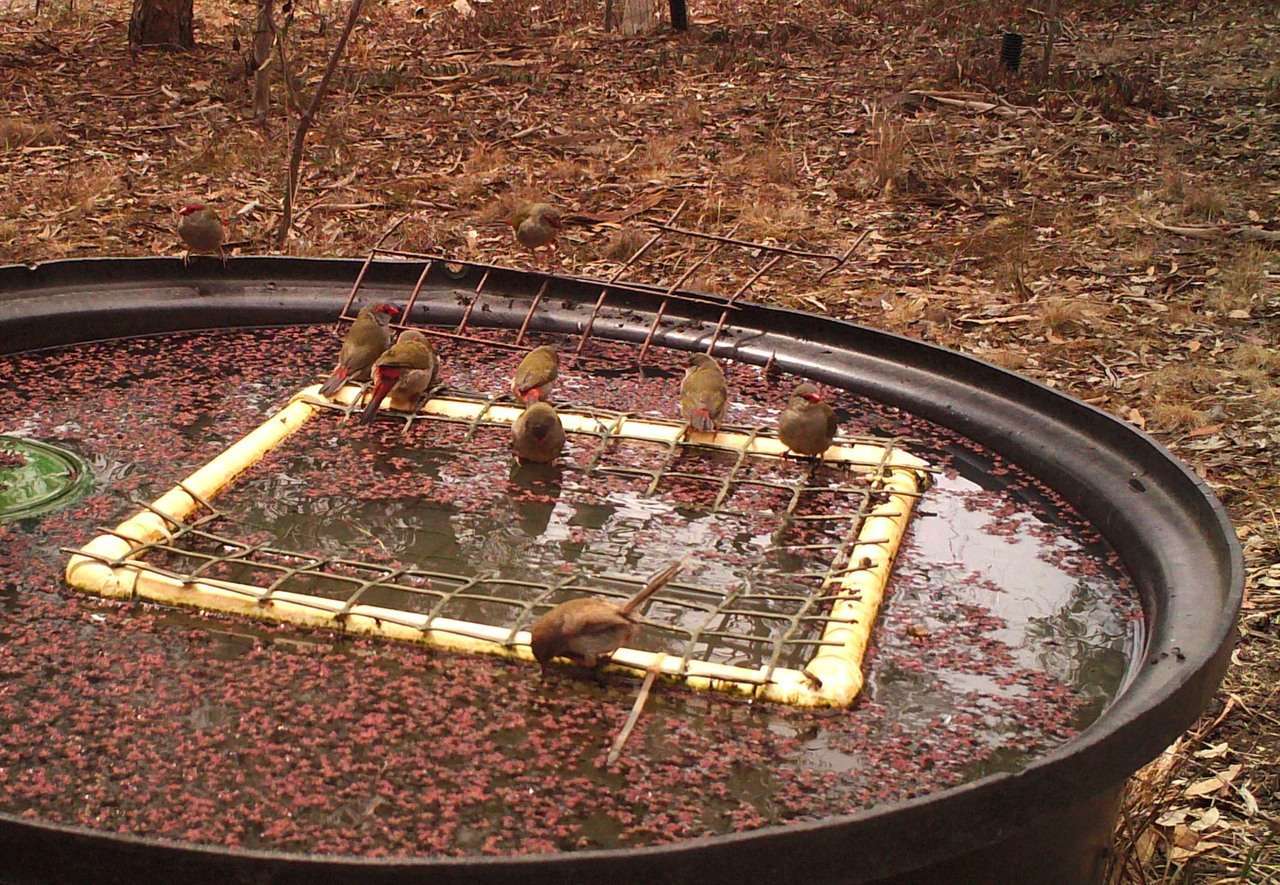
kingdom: Animalia
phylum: Chordata
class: Aves
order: Passeriformes
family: Estrildidae
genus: Neochmia
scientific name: Neochmia temporalis
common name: Red-browed finch
